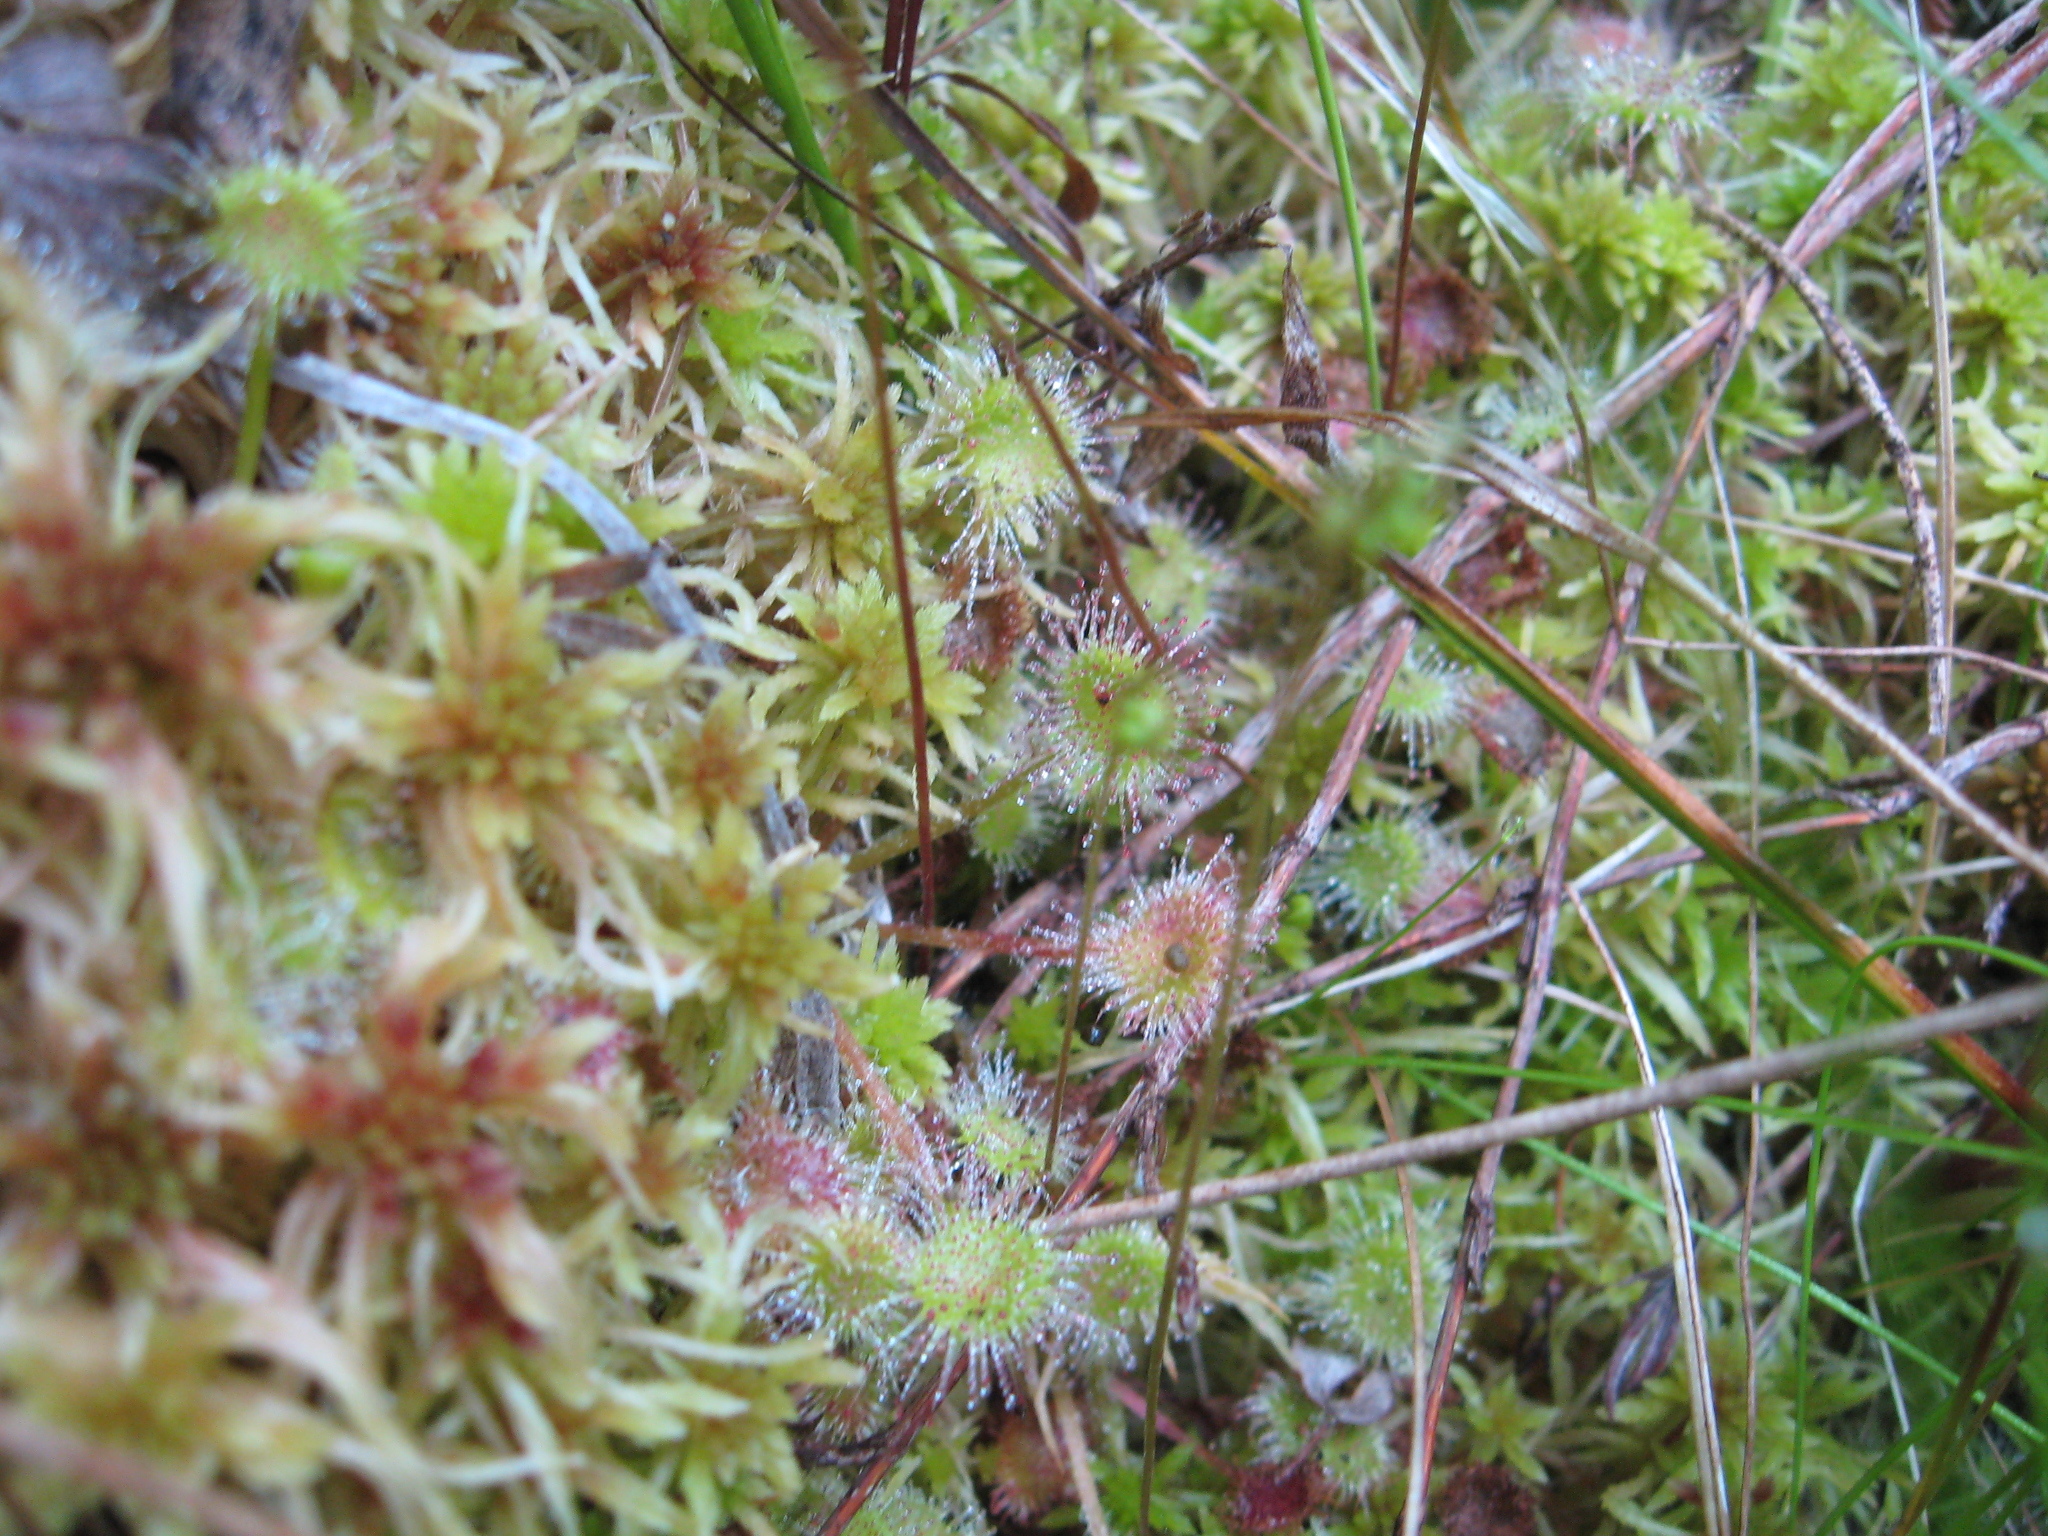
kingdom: Plantae
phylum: Tracheophyta
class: Magnoliopsida
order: Caryophyllales
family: Droseraceae
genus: Drosera
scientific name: Drosera rotundifolia
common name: Round-leaved sundew
